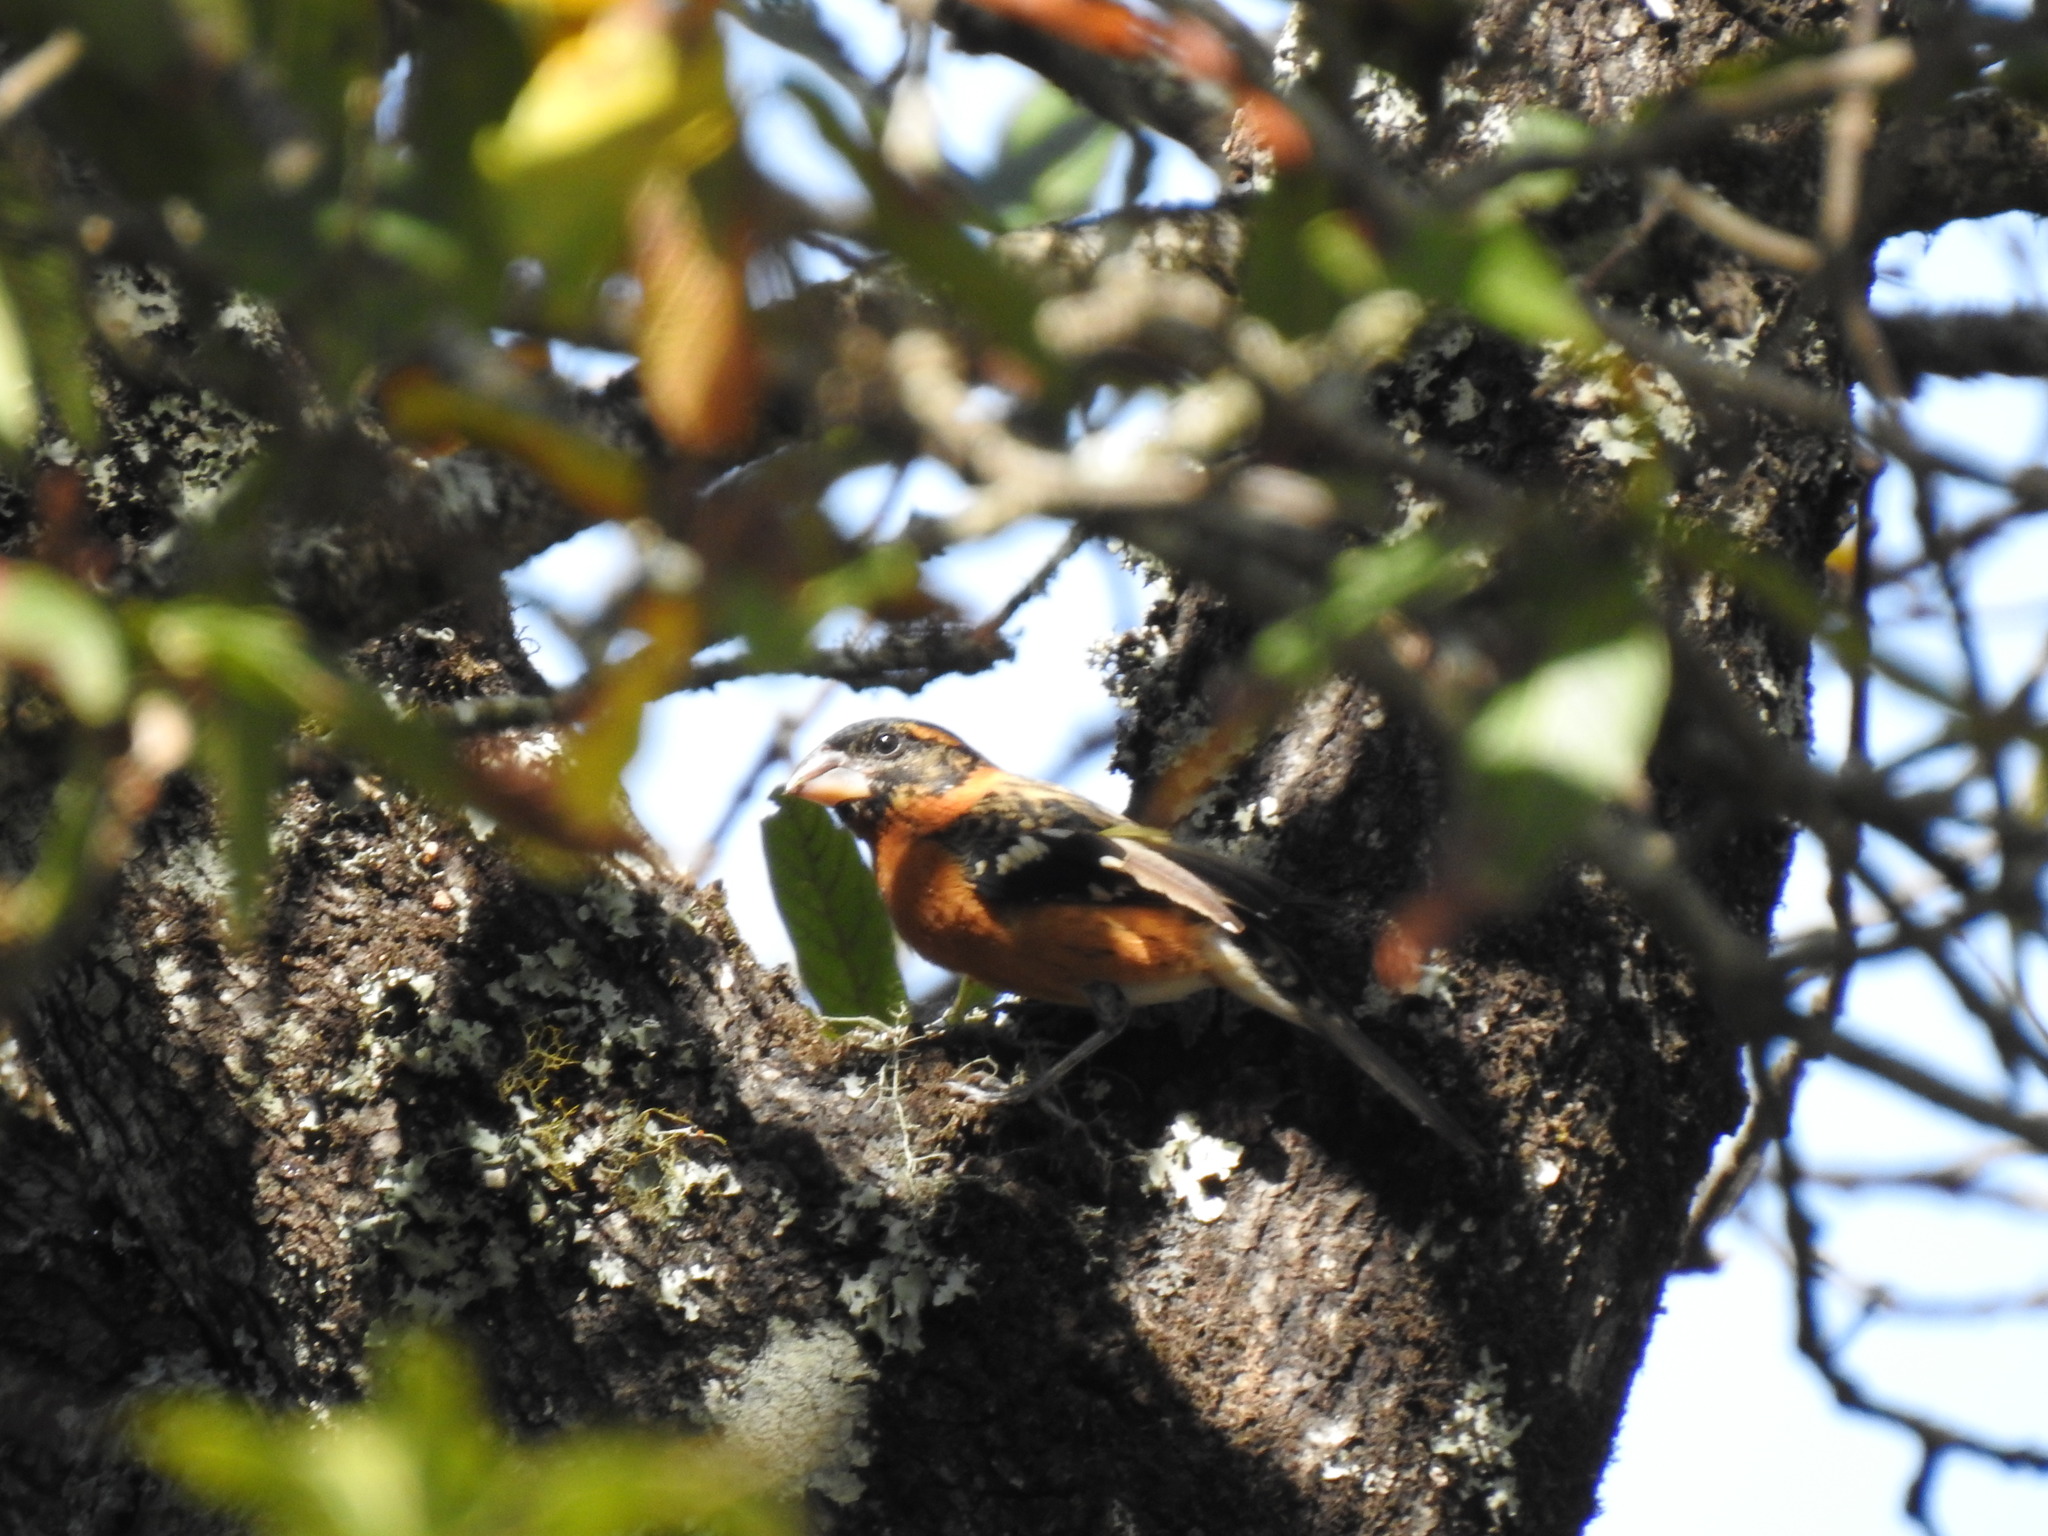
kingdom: Animalia
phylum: Chordata
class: Aves
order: Passeriformes
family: Cardinalidae
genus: Pheucticus
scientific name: Pheucticus melanocephalus
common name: Black-headed grosbeak
